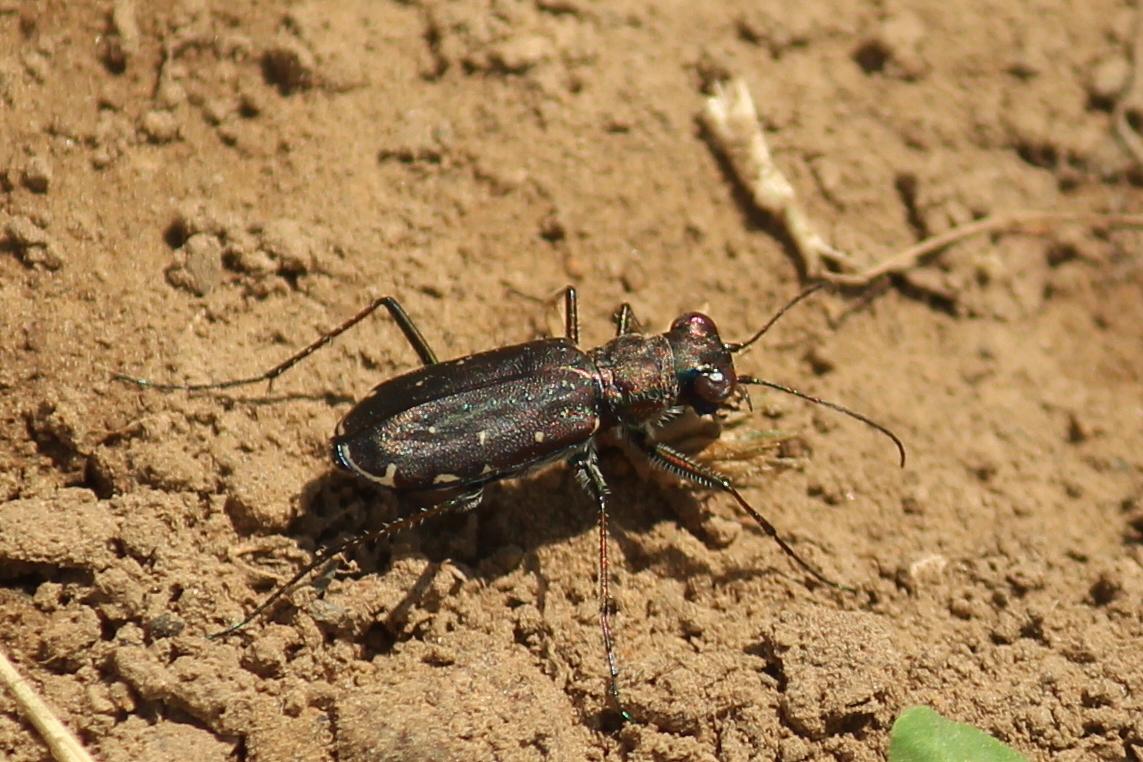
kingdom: Animalia
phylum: Arthropoda
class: Insecta
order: Coleoptera
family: Carabidae
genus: Cicindela
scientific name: Cicindela punctulata
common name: Punctured tiger beetle
